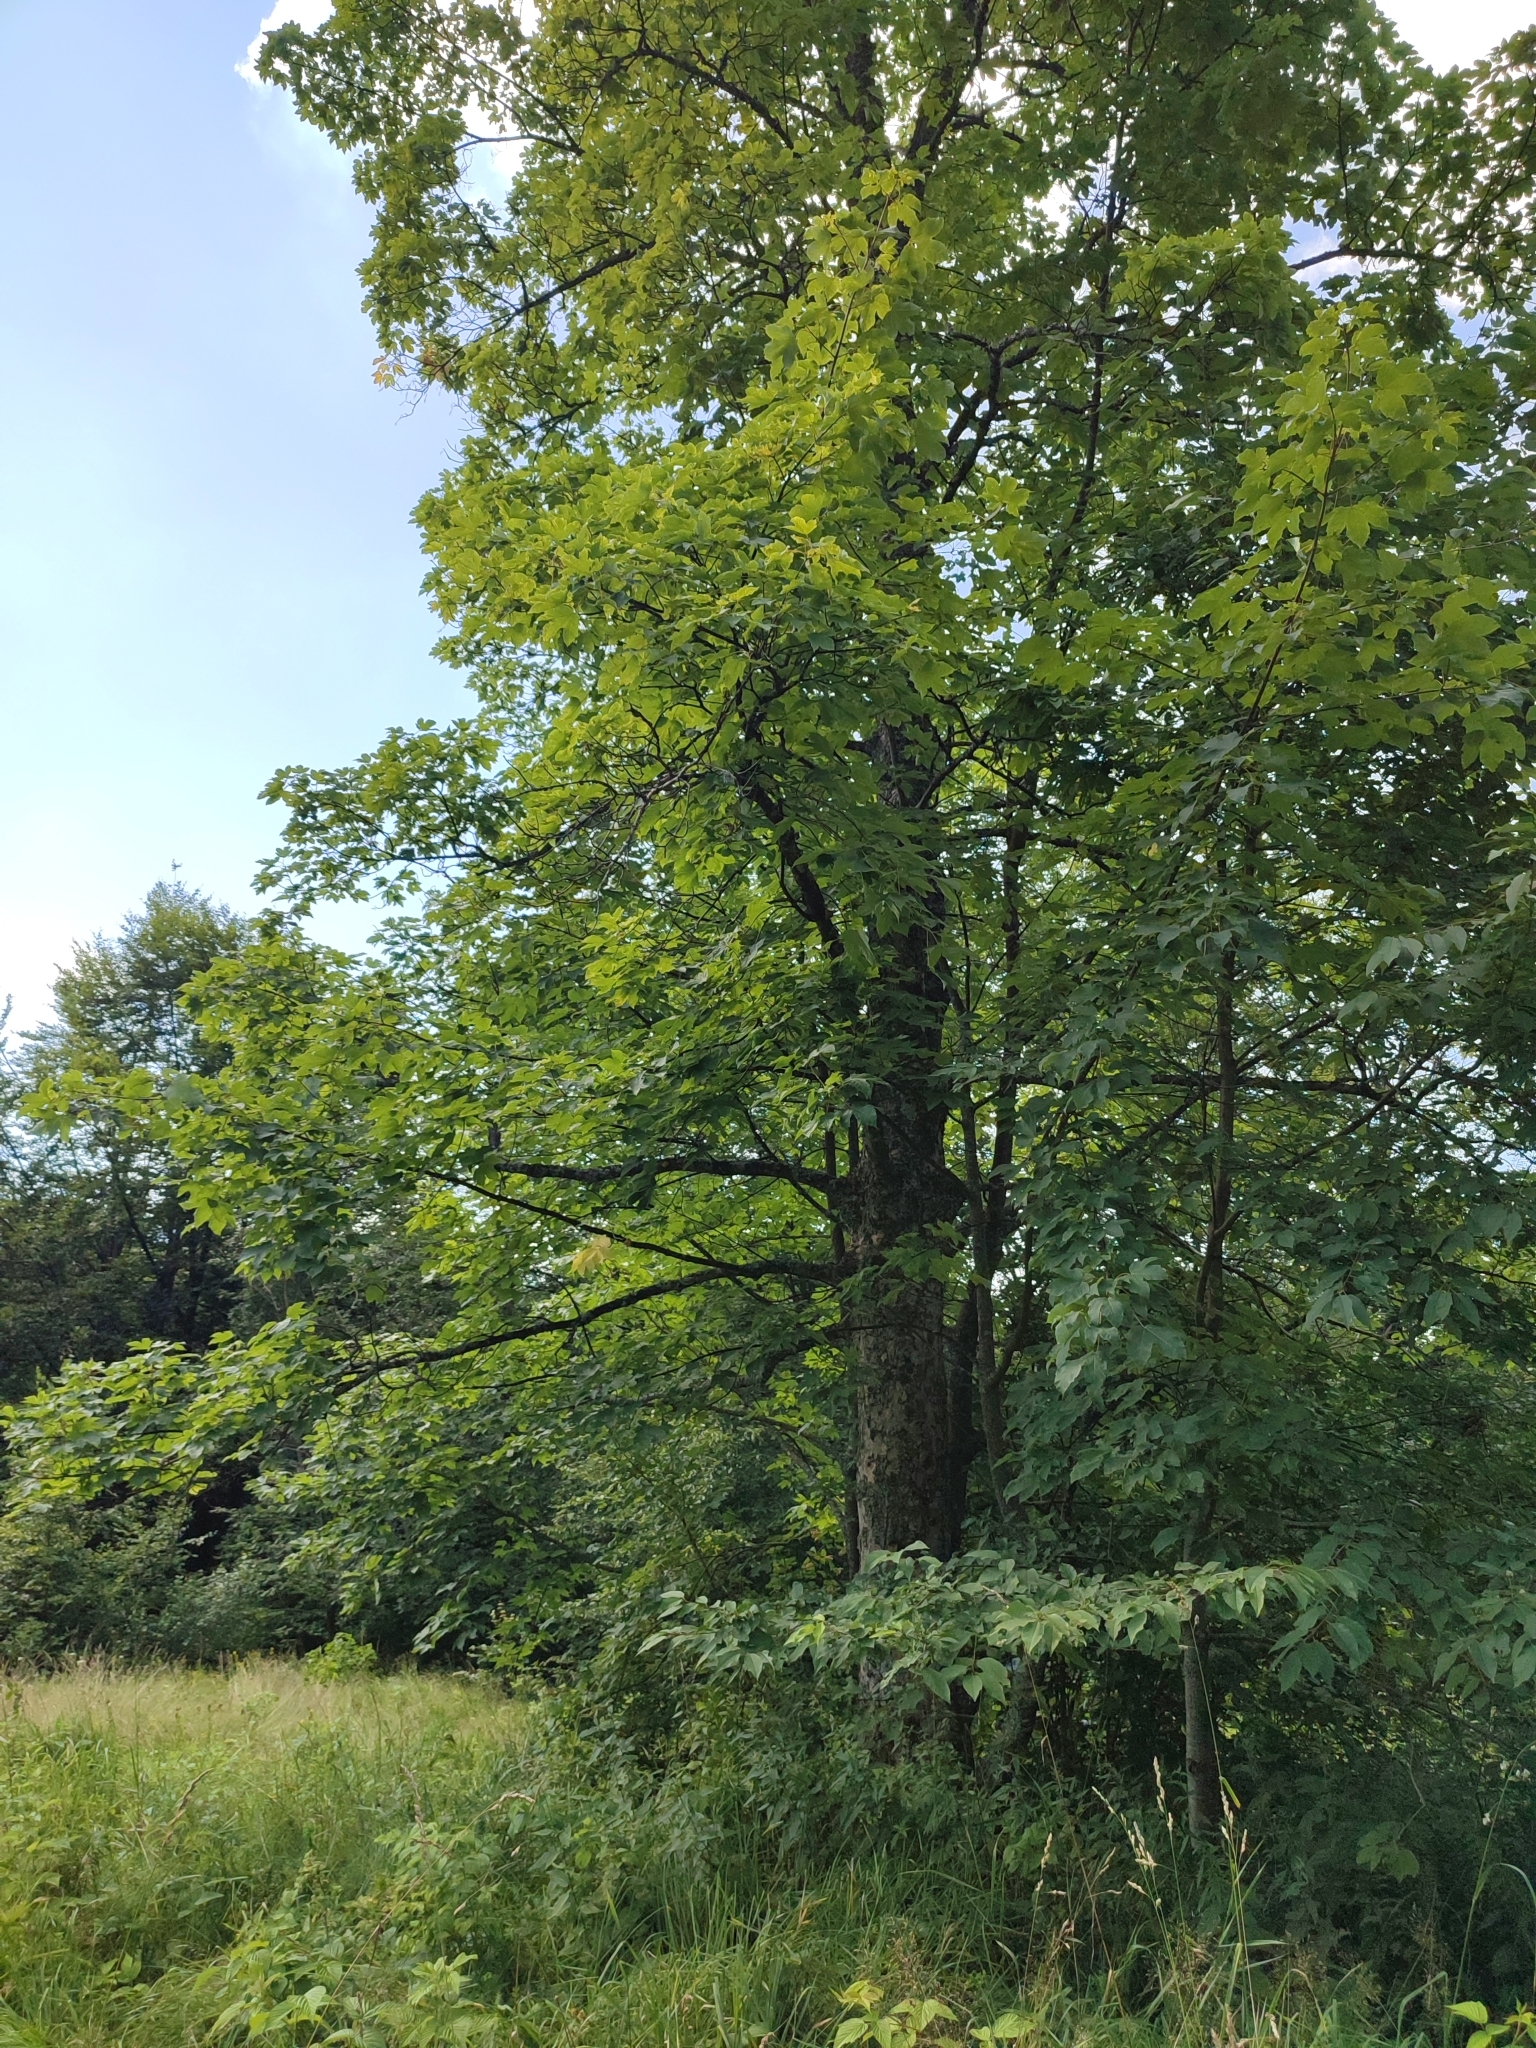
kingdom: Plantae
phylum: Tracheophyta
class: Magnoliopsida
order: Sapindales
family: Sapindaceae
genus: Acer
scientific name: Acer pseudoplatanus
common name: Sycamore
